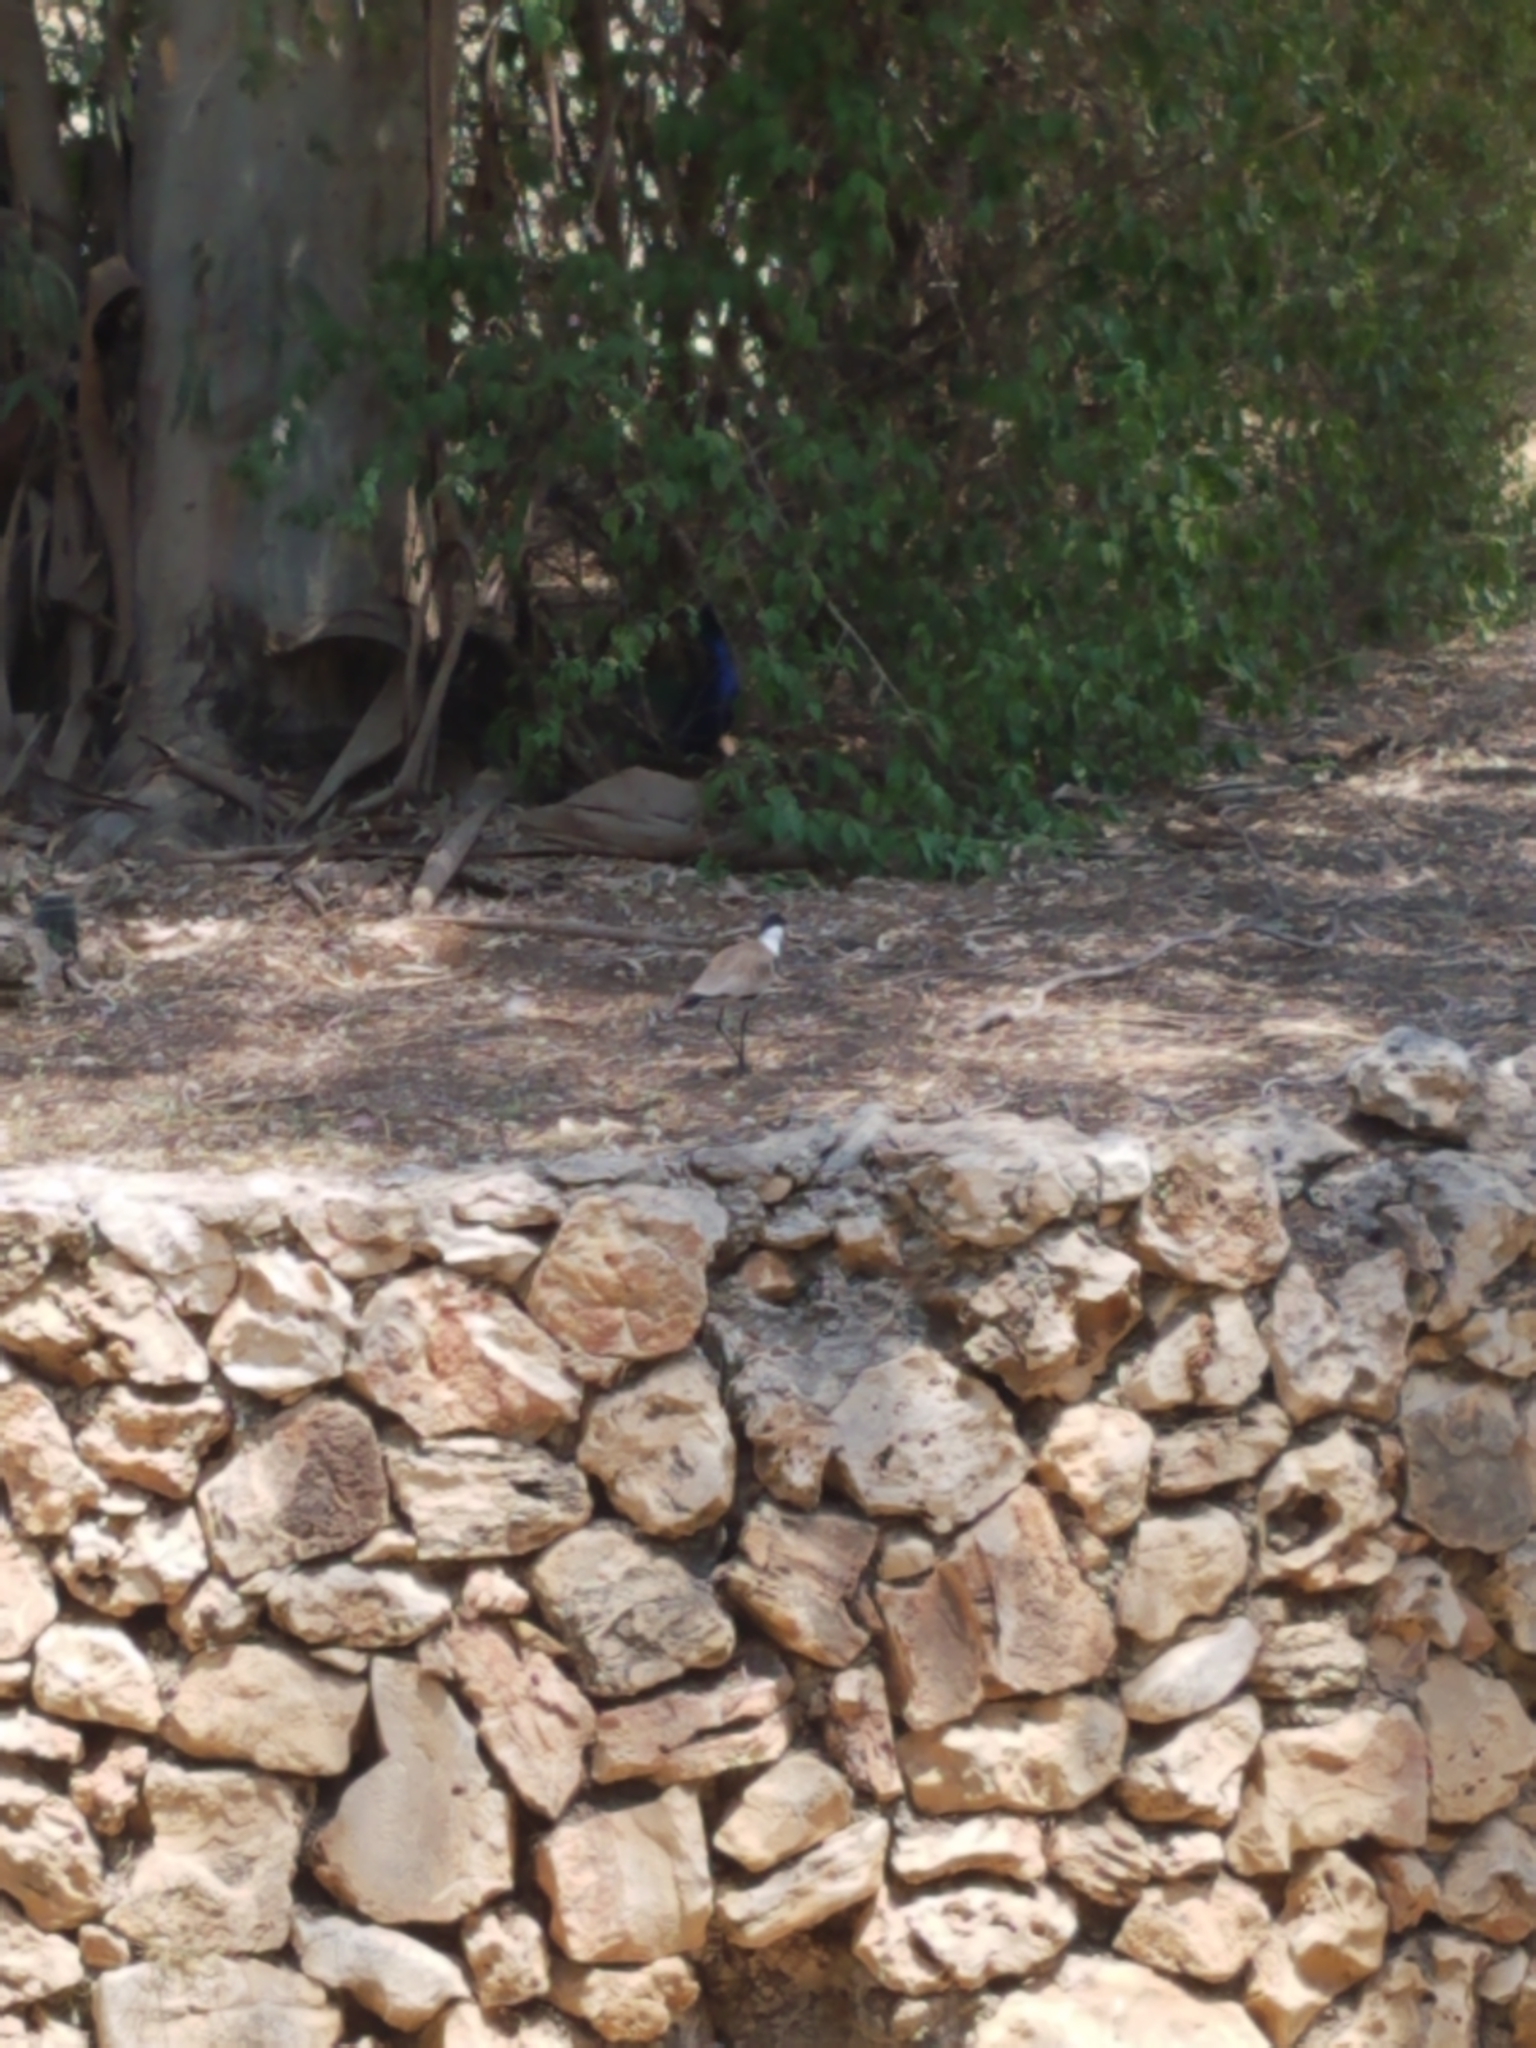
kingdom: Animalia
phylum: Chordata
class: Aves
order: Charadriiformes
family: Charadriidae
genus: Vanellus
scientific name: Vanellus spinosus
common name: Spur-winged lapwing
